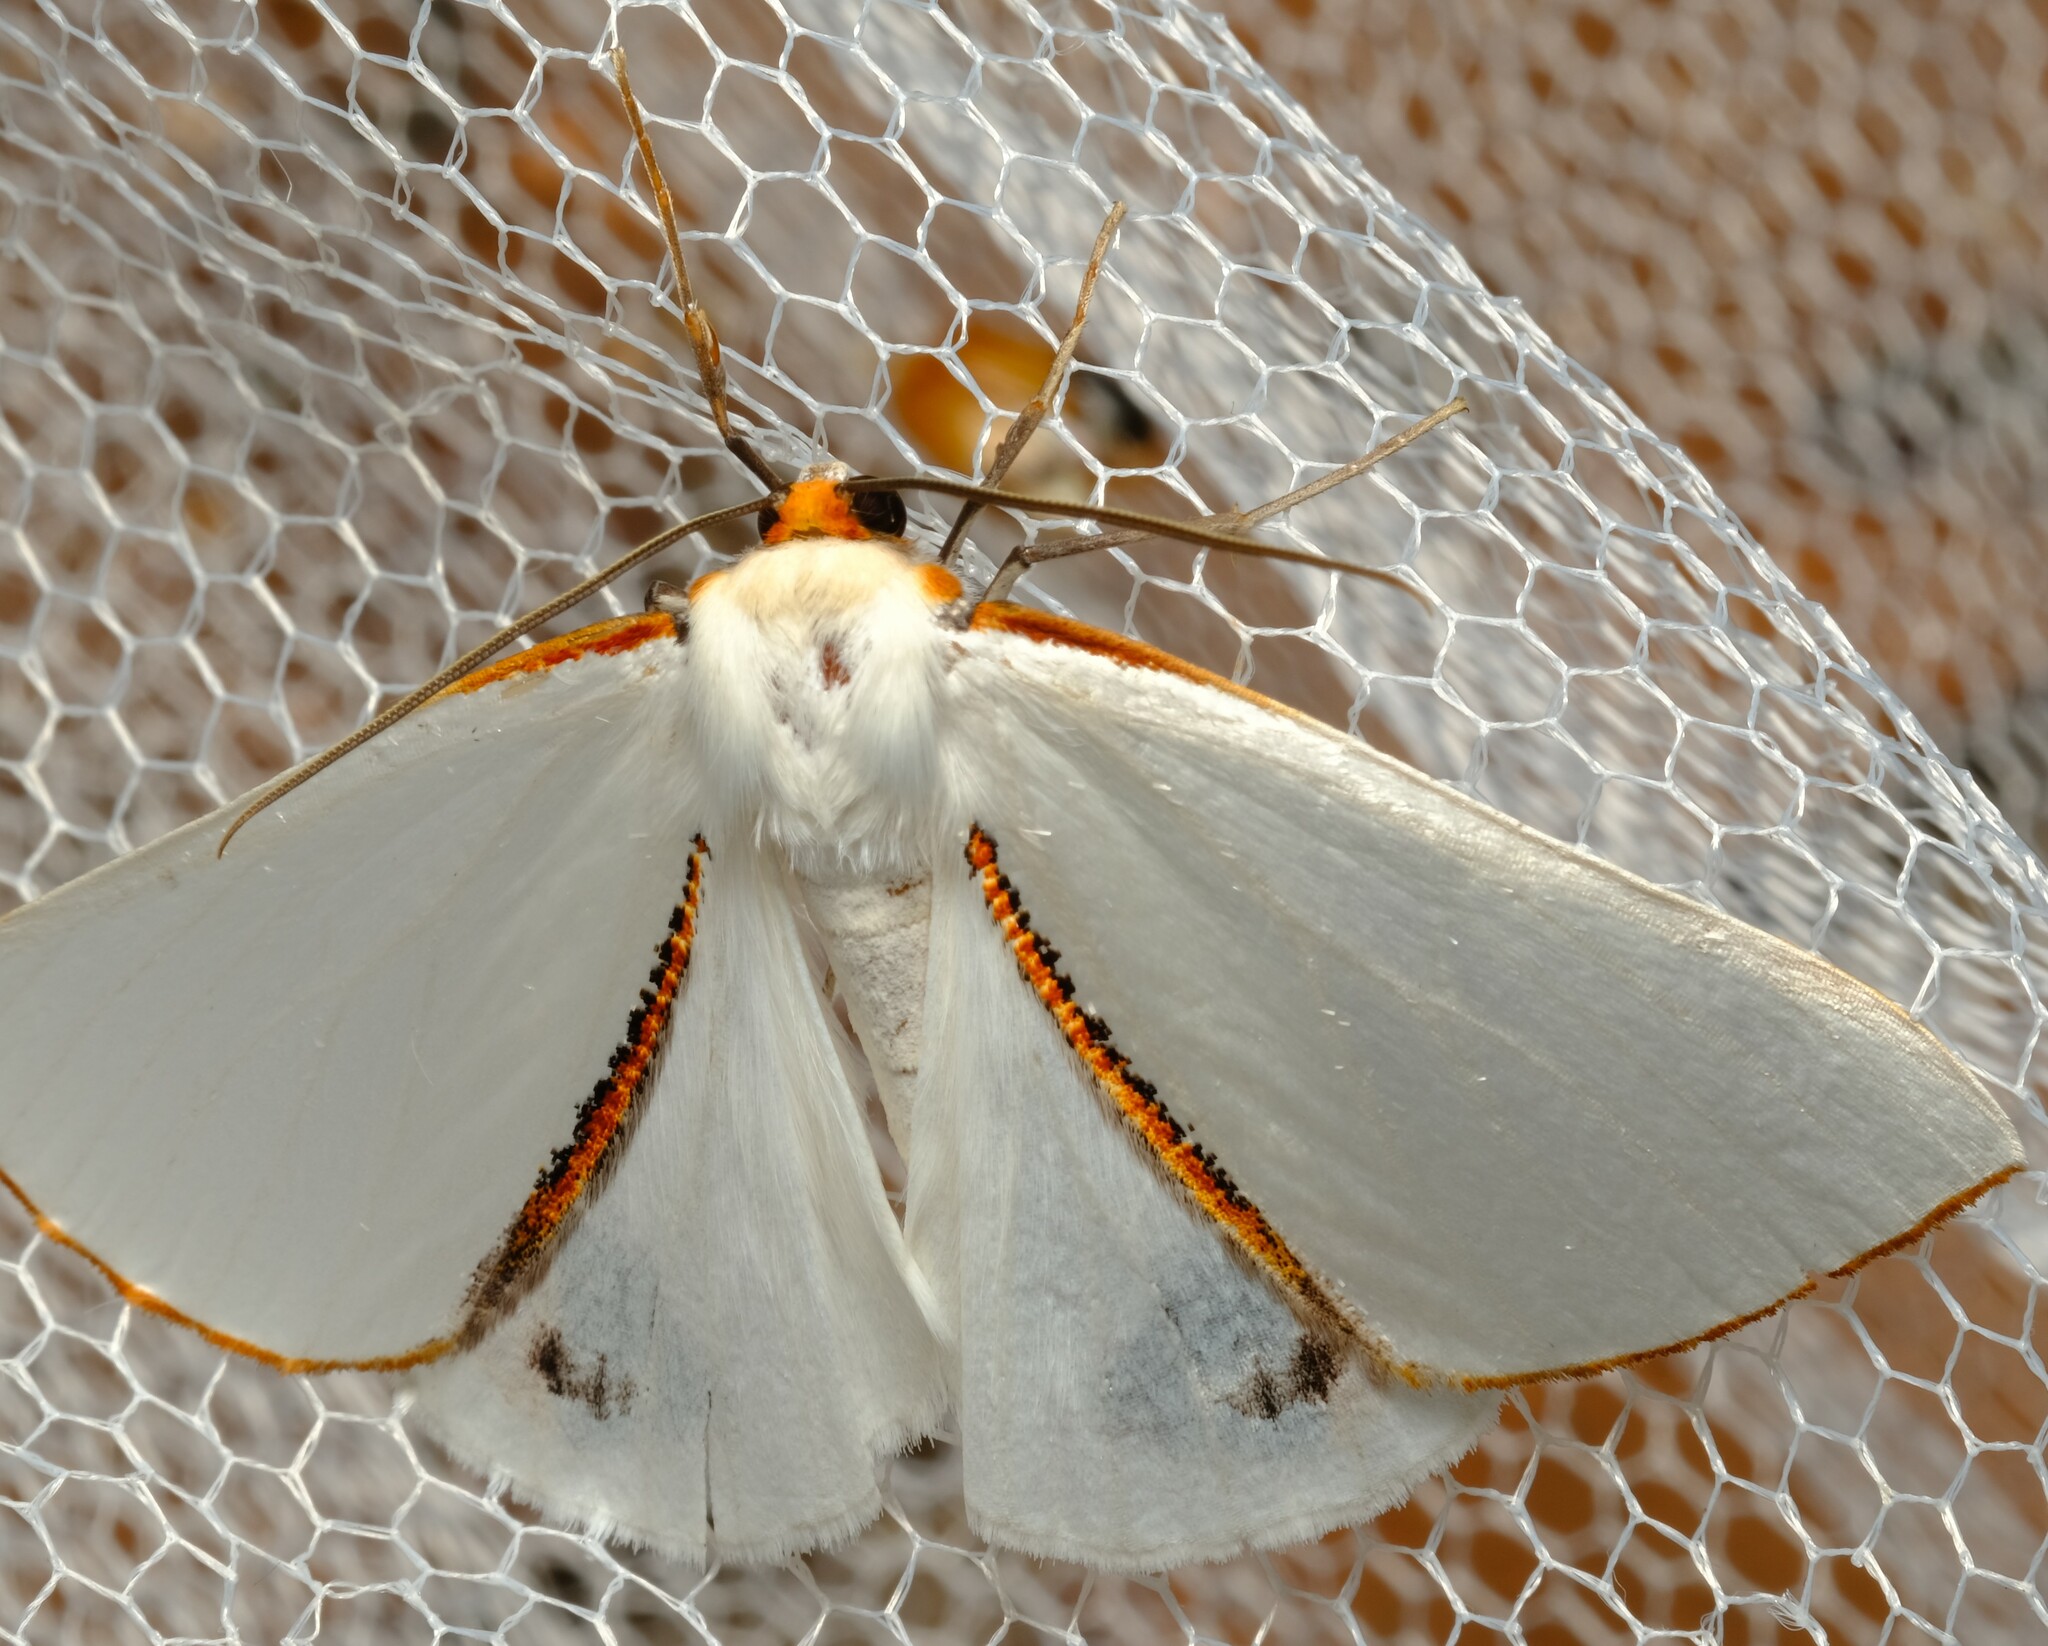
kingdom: Animalia
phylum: Arthropoda
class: Insecta
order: Lepidoptera
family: Geometridae
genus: Thalaina
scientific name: Thalaina selenaea
